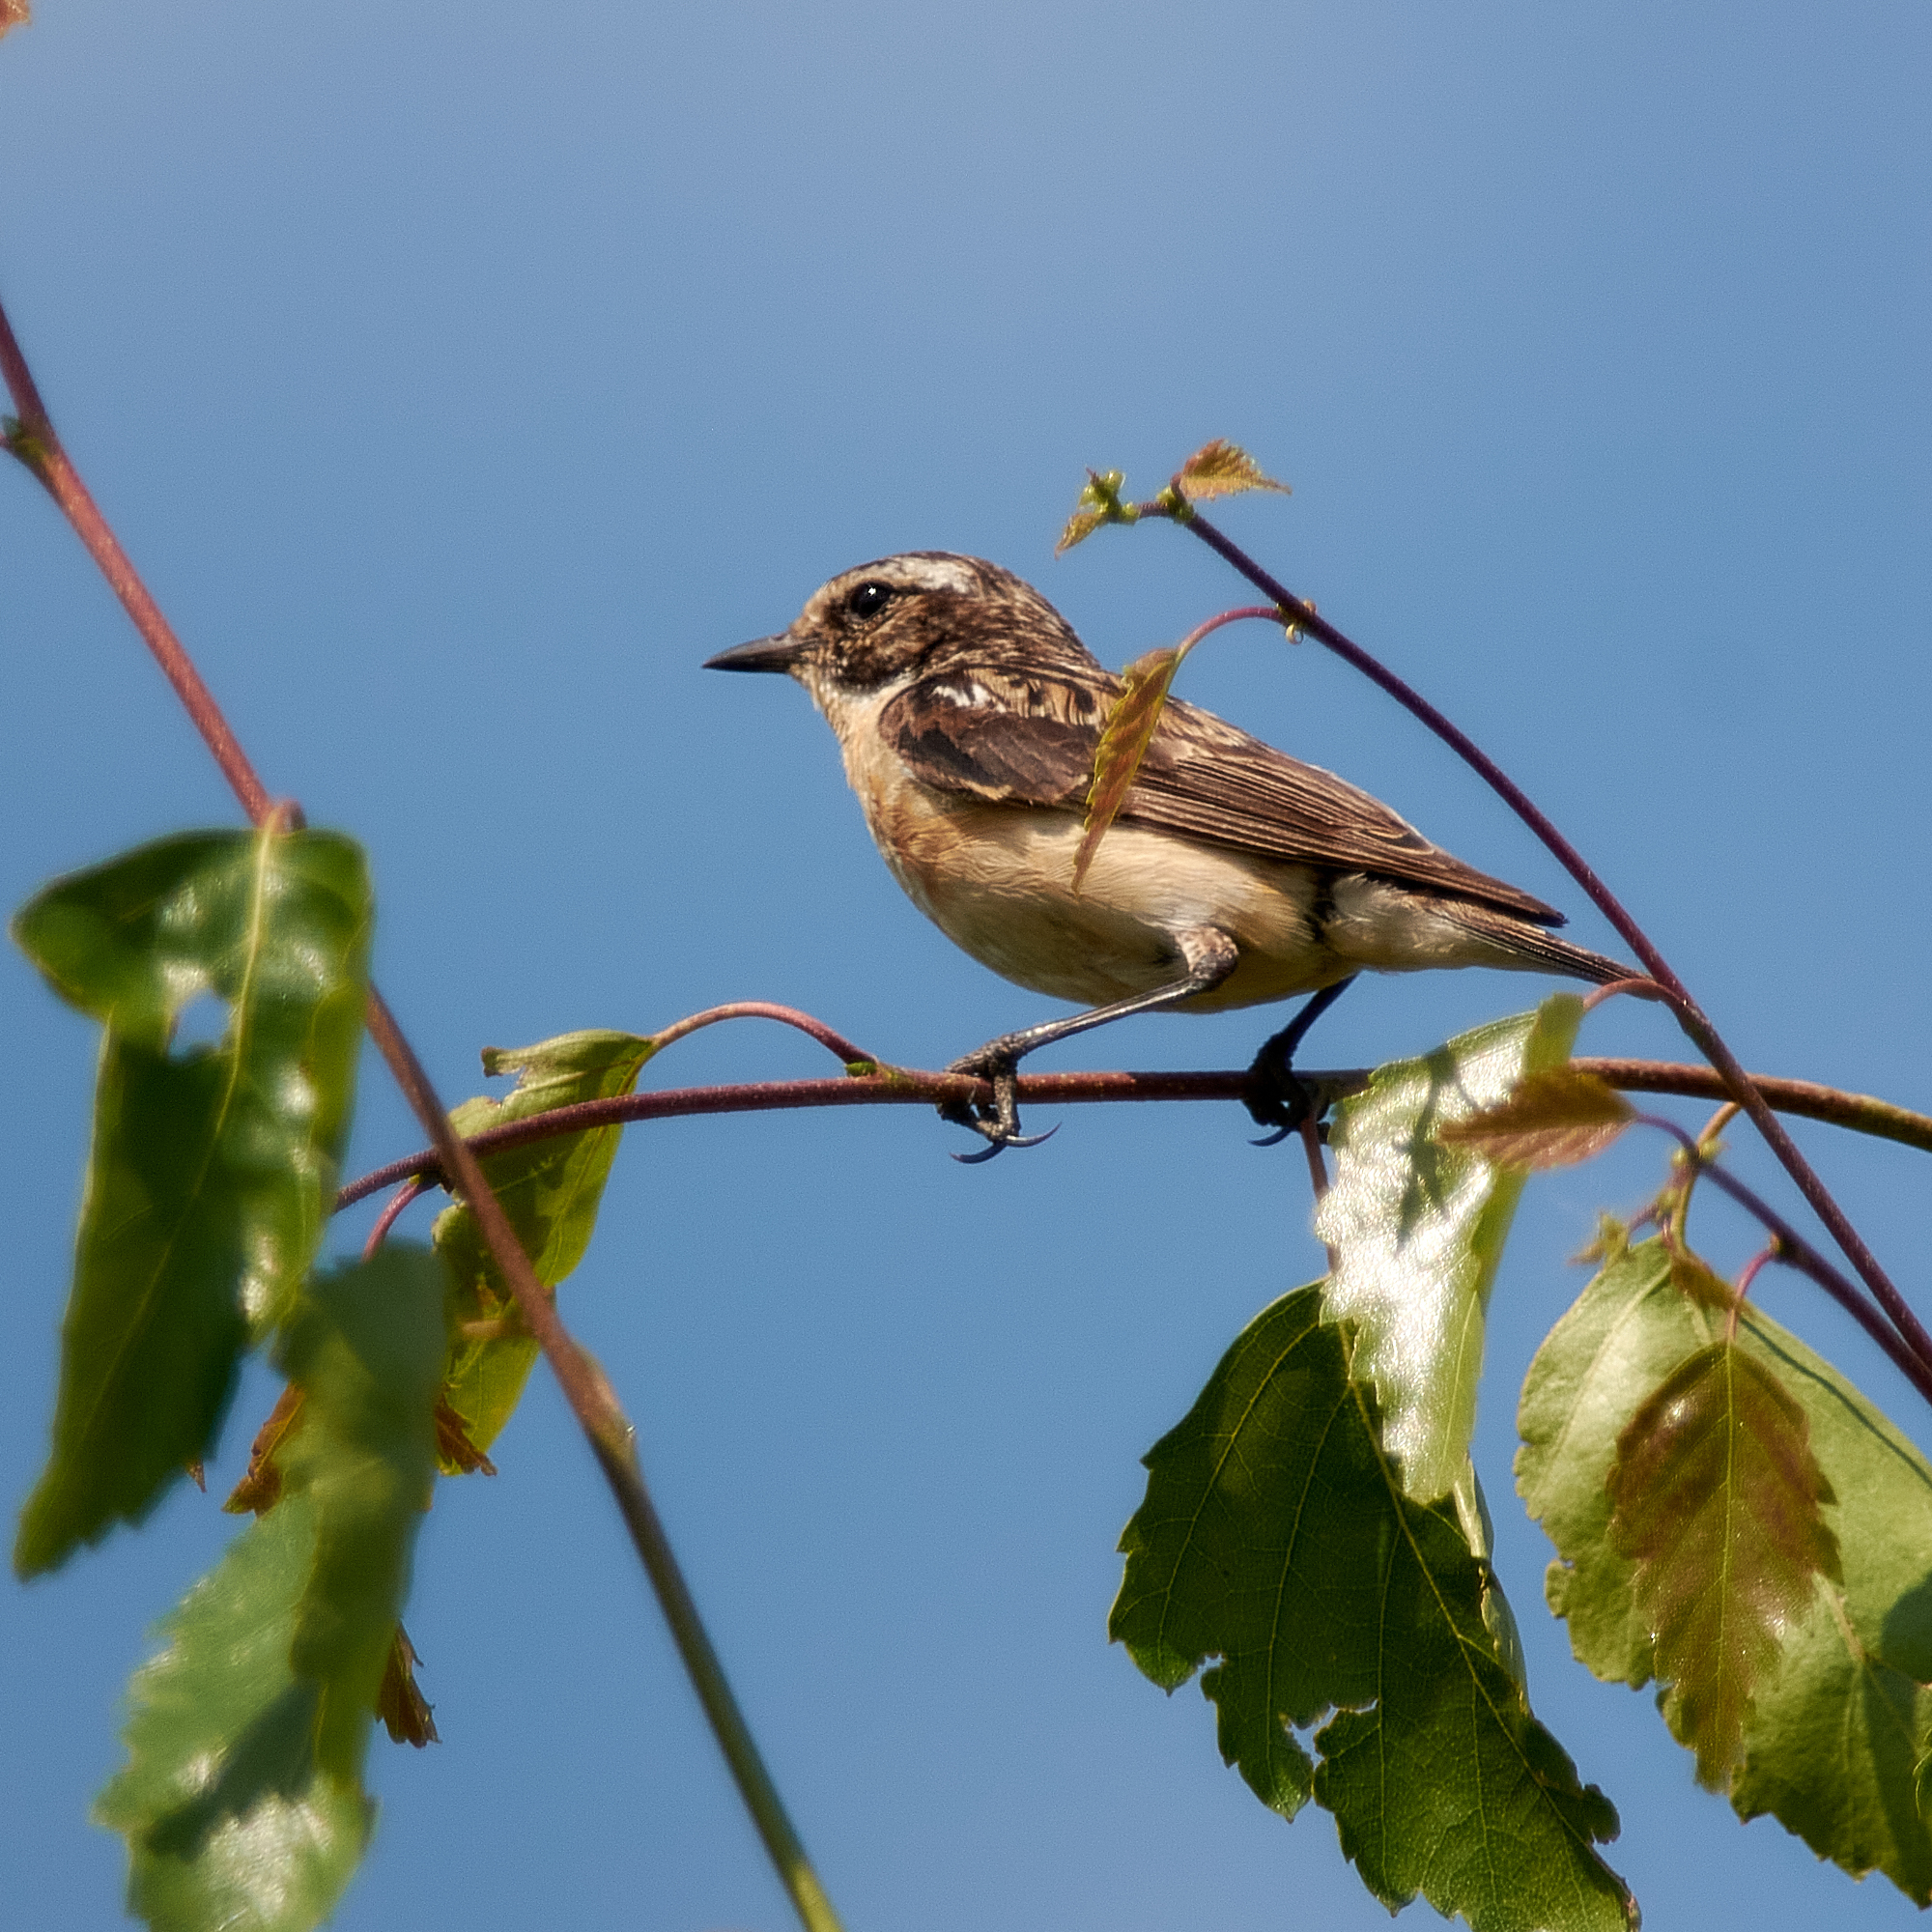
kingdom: Animalia
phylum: Chordata
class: Aves
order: Passeriformes
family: Muscicapidae
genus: Saxicola
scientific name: Saxicola rubetra
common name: Whinchat
